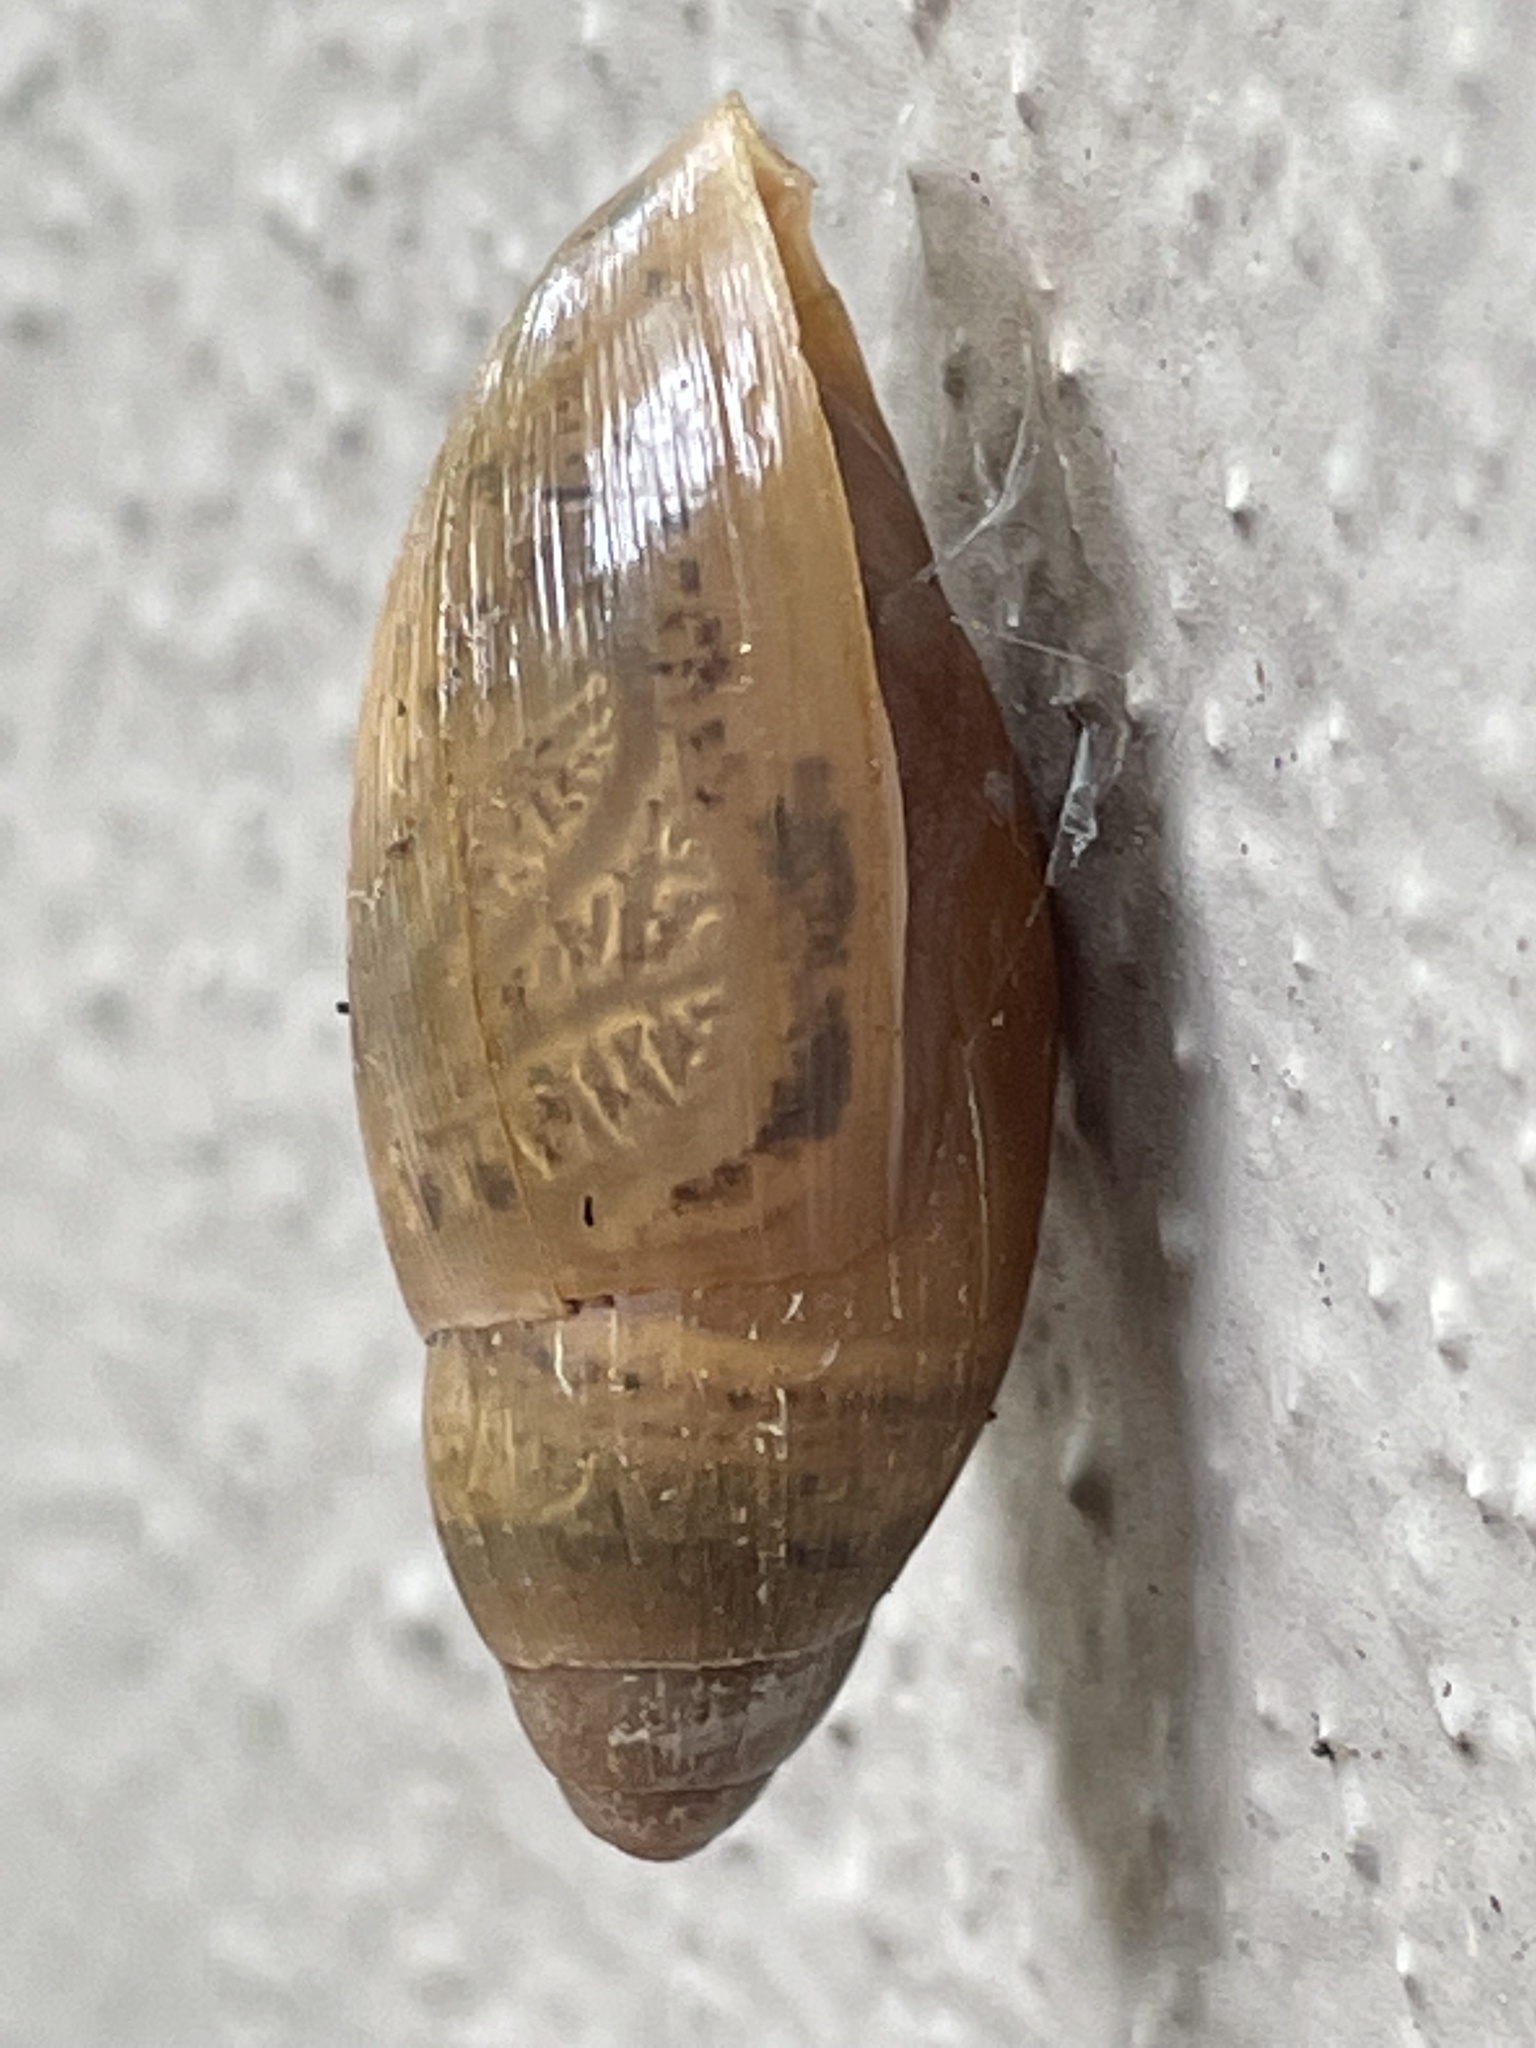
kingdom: Animalia
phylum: Mollusca
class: Gastropoda
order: Stylommatophora
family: Spiraxidae
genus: Euglandina
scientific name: Euglandina rosea
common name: Rosy wolfsnail
